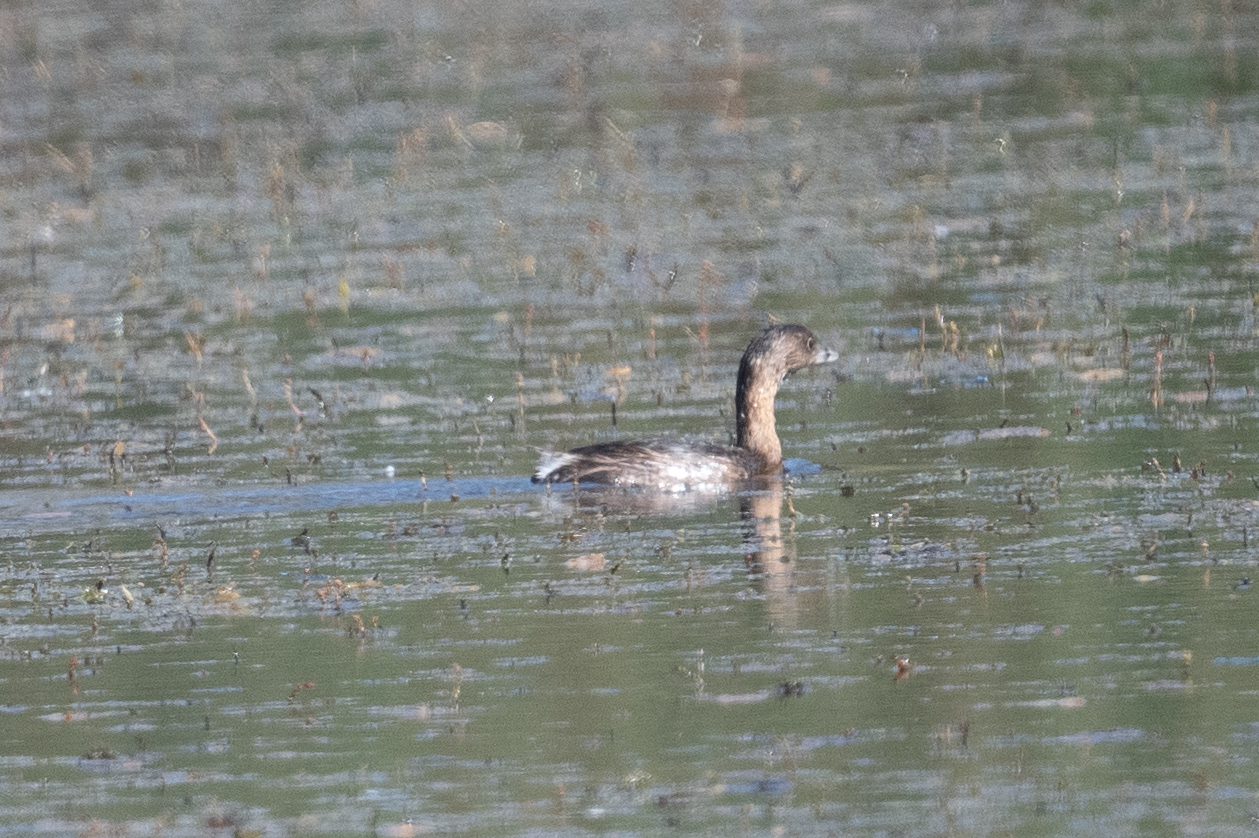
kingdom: Animalia
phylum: Chordata
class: Aves
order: Podicipediformes
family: Podicipedidae
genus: Podilymbus
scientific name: Podilymbus podiceps
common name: Pied-billed grebe
